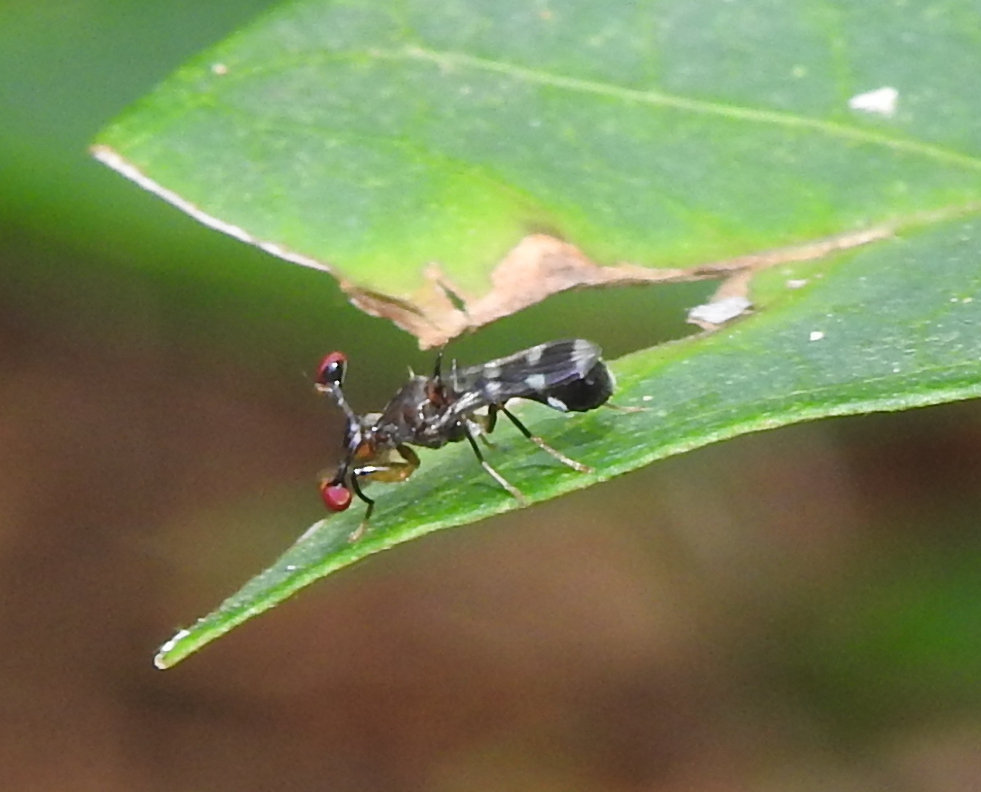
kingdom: Animalia
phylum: Arthropoda
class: Insecta
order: Diptera
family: Diopsidae
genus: Megalabops
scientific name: Megalabops
